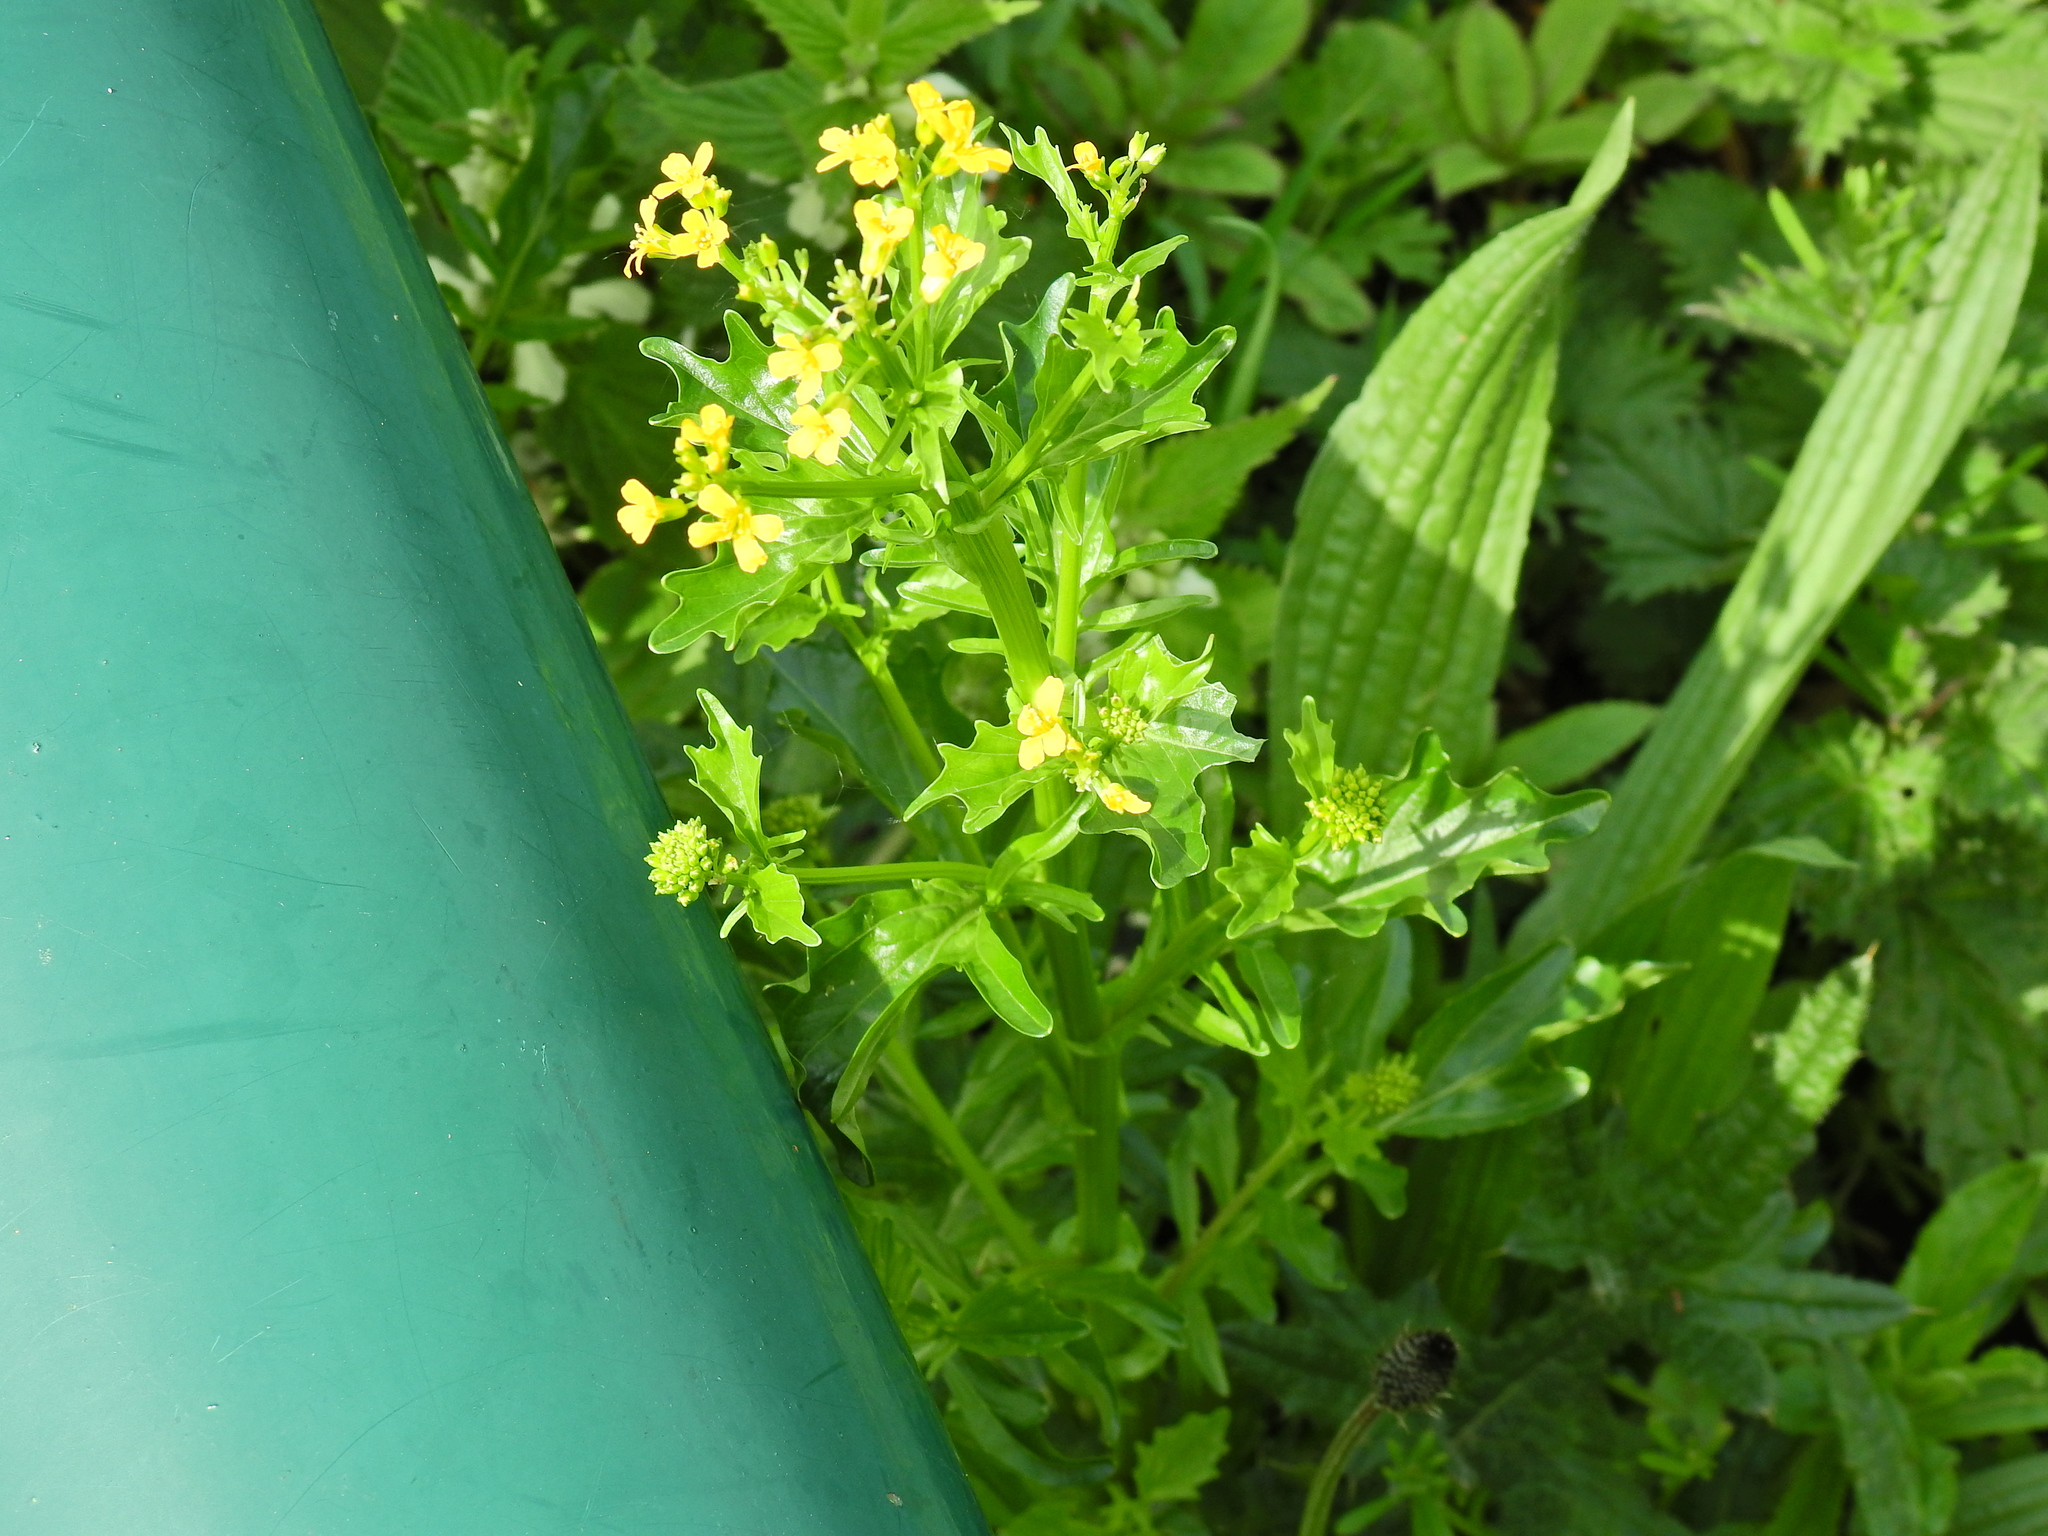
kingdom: Plantae
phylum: Tracheophyta
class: Magnoliopsida
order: Brassicales
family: Brassicaceae
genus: Barbarea
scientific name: Barbarea vulgaris
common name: Cressy-greens
